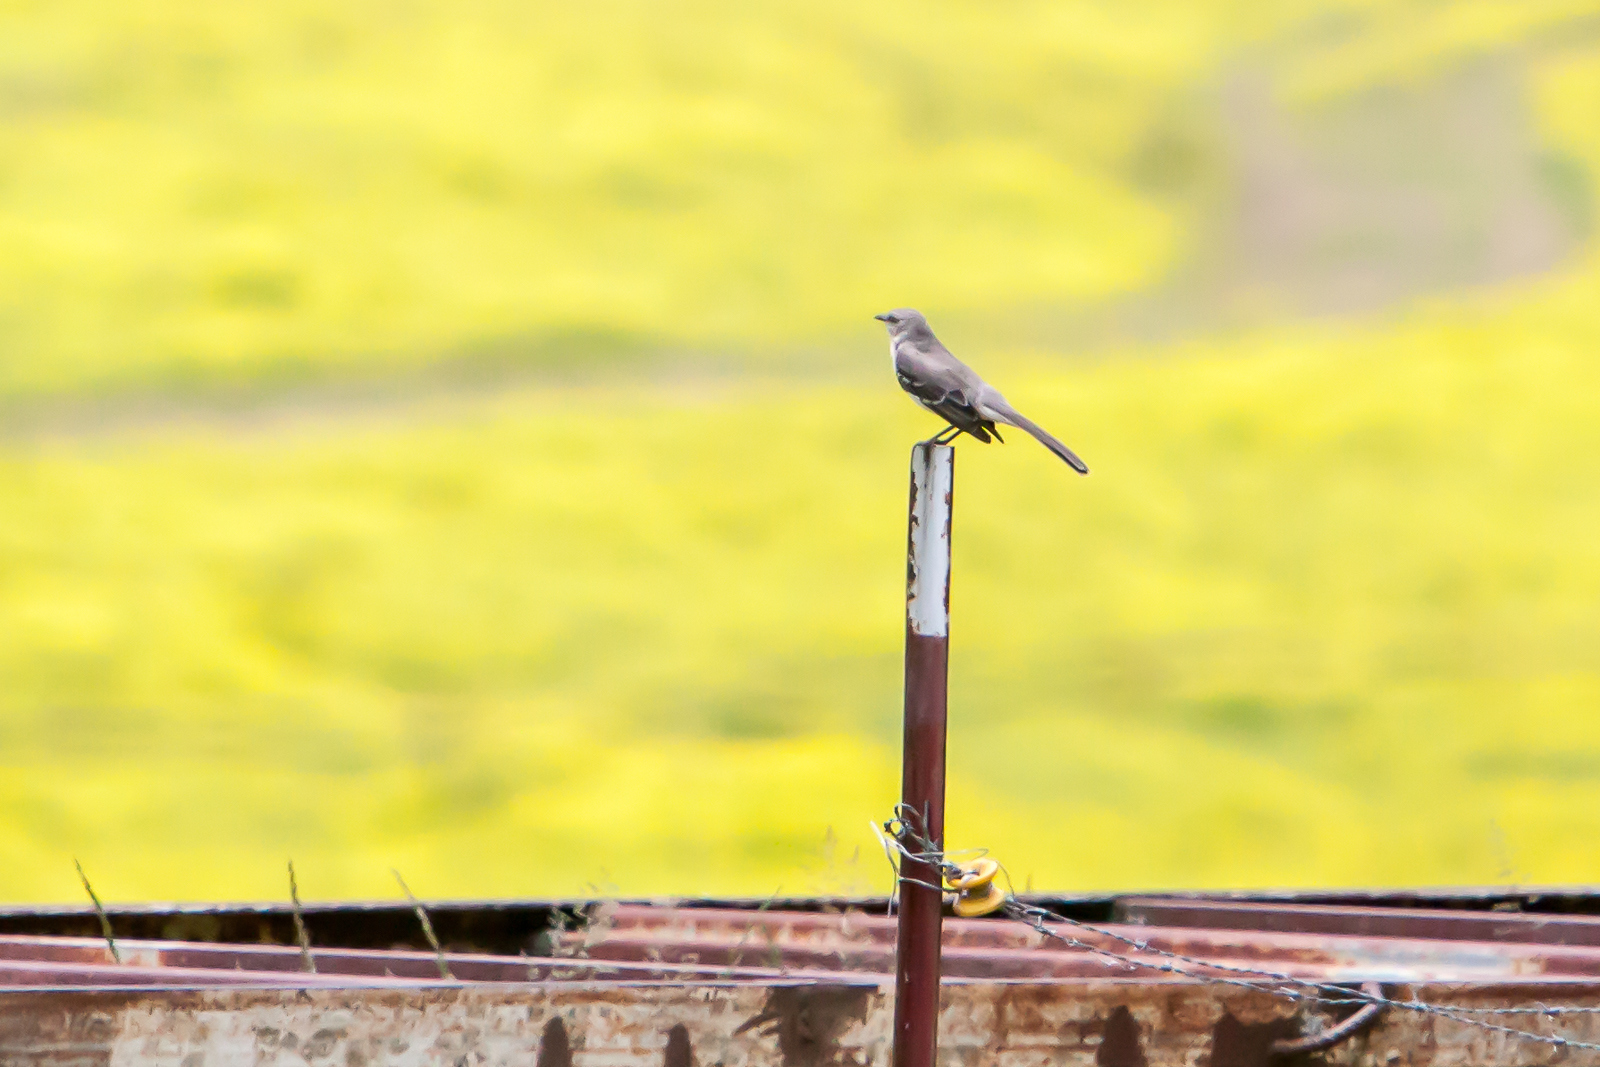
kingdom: Animalia
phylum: Chordata
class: Aves
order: Passeriformes
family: Mimidae
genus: Mimus
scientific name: Mimus polyglottos
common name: Northern mockingbird
